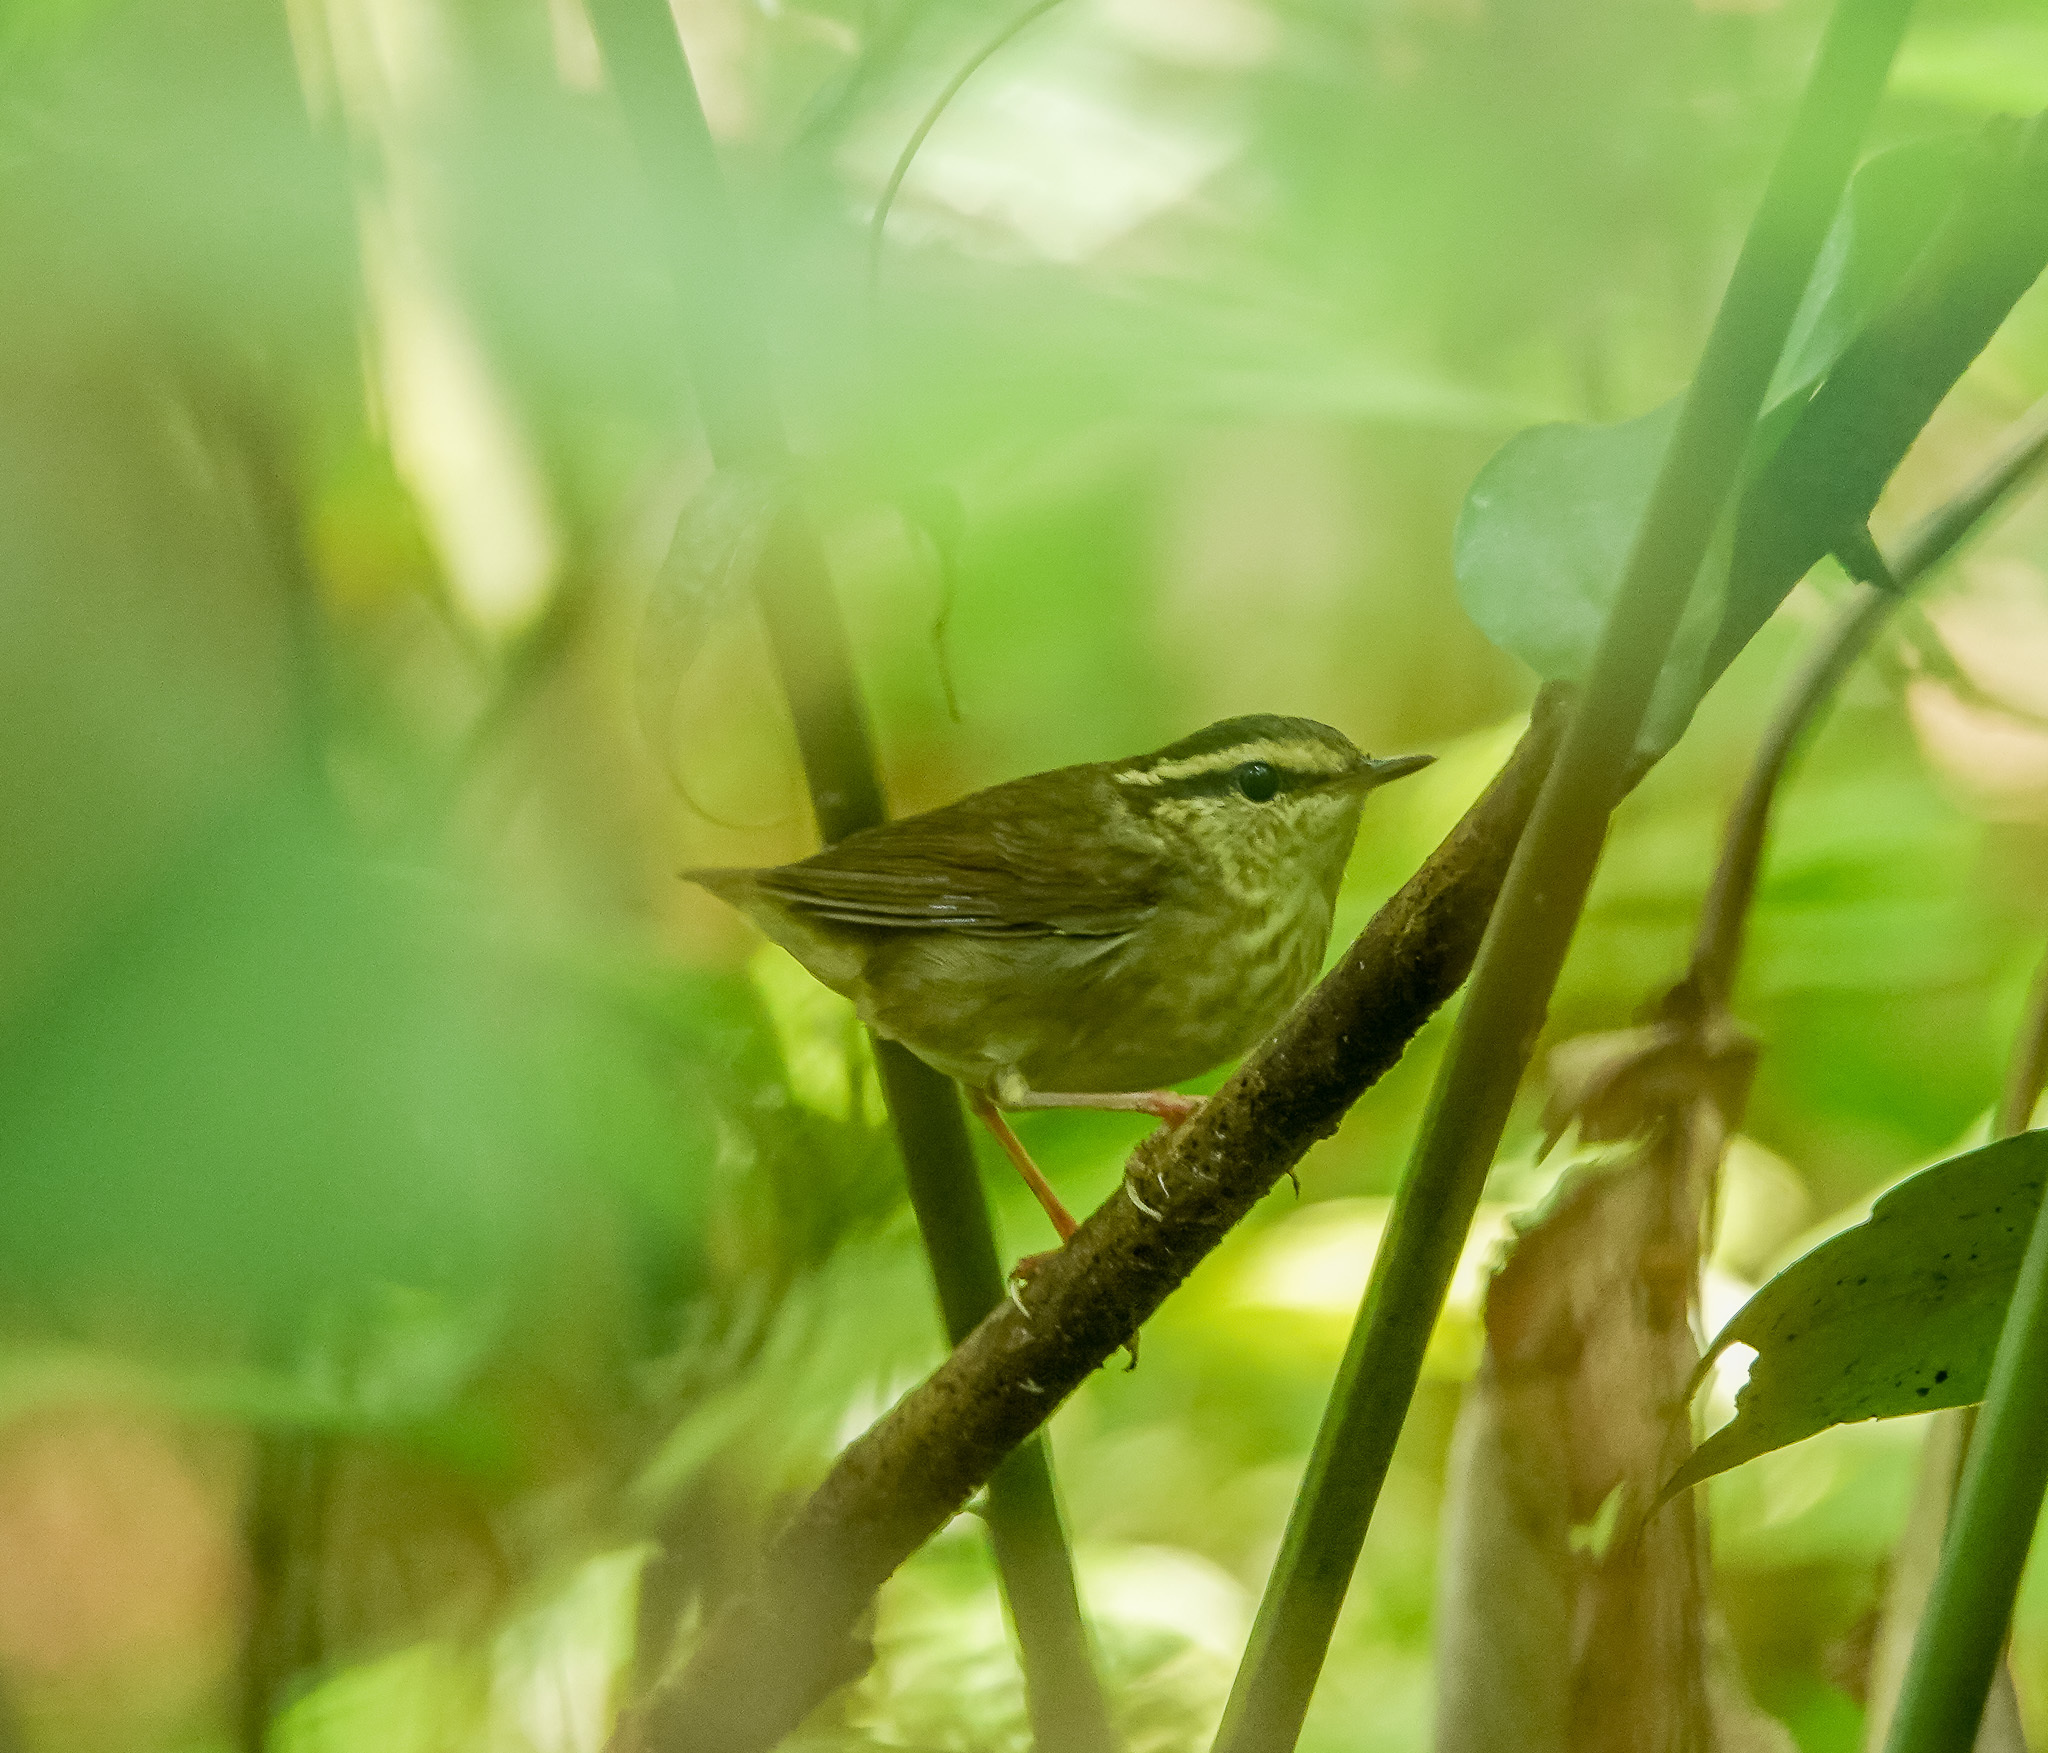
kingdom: Animalia
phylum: Chordata
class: Aves
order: Passeriformes
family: Cettiidae
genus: Urosphena
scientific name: Urosphena squameiceps
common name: Asian stubtail
